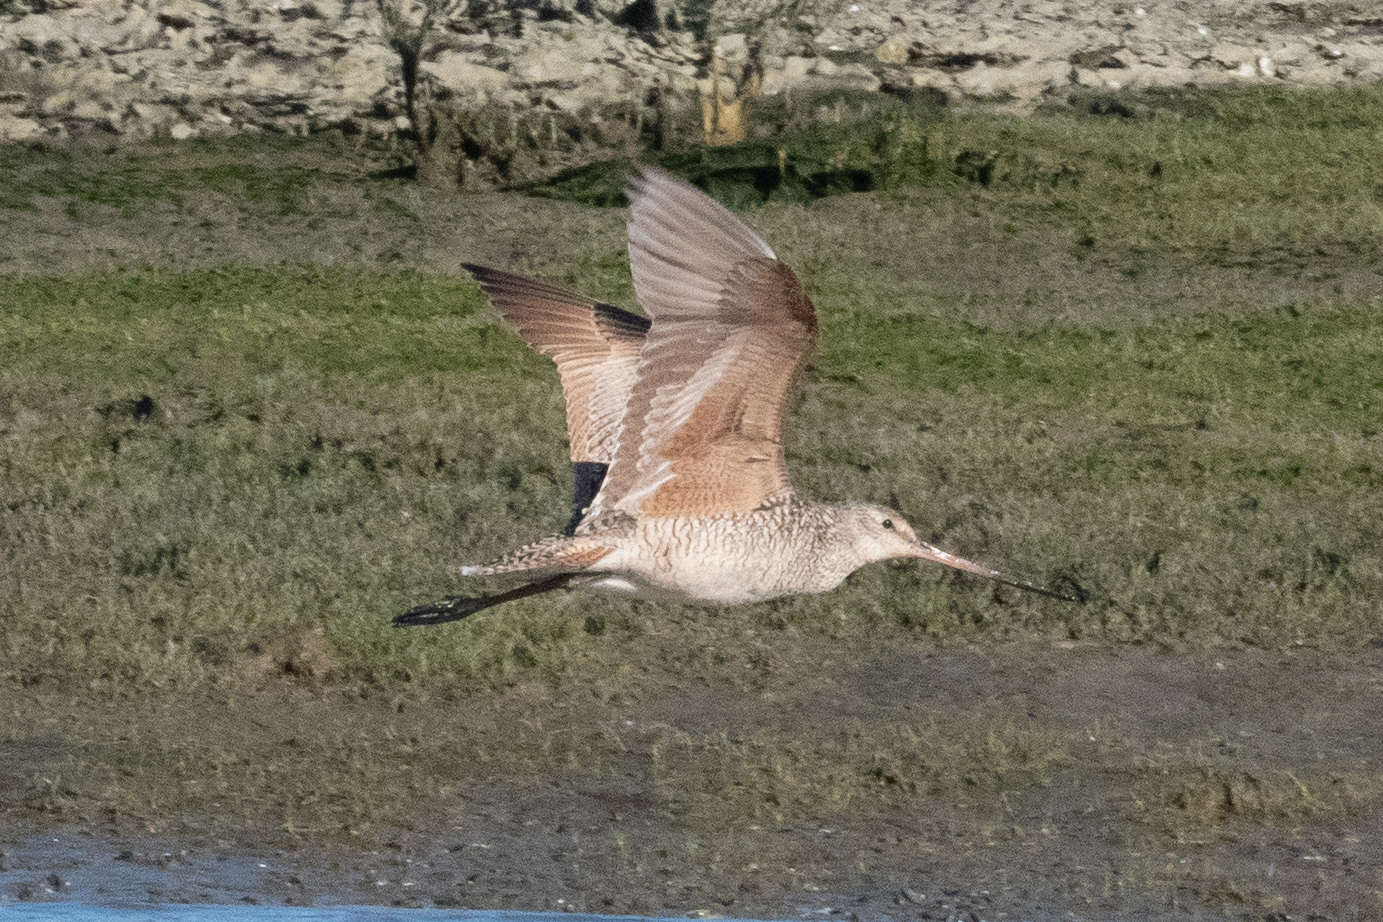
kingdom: Animalia
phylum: Chordata
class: Aves
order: Charadriiformes
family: Scolopacidae
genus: Limosa
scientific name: Limosa fedoa
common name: Marbled godwit
